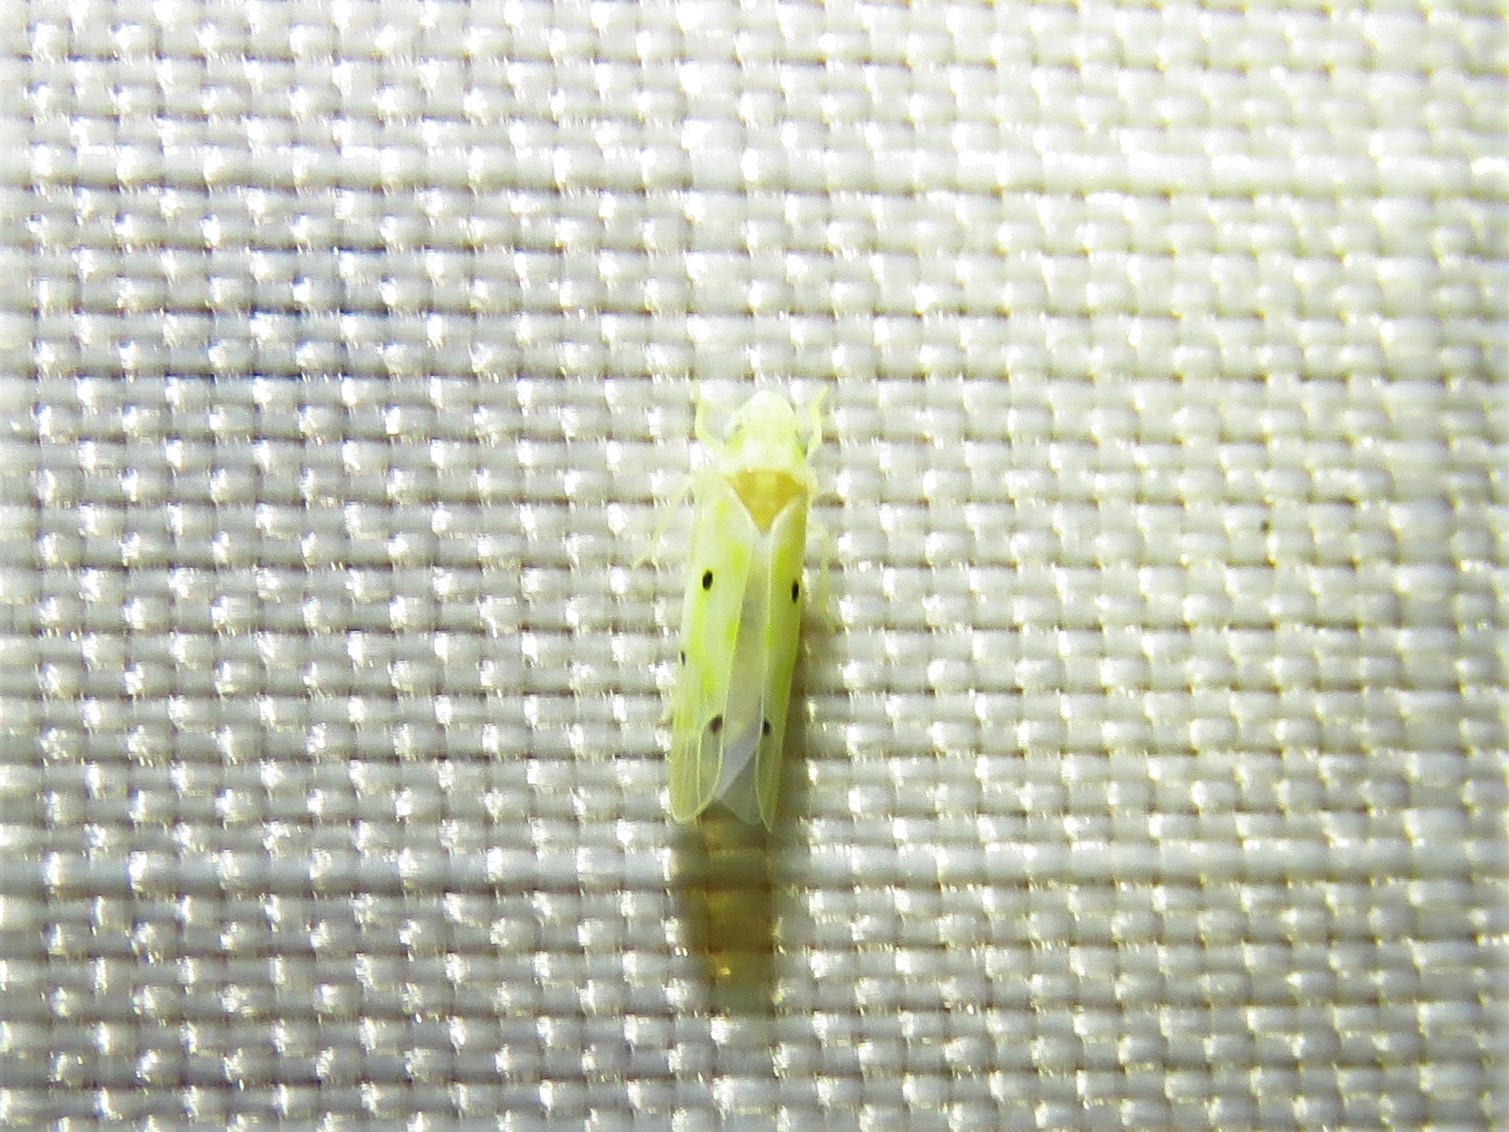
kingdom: Animalia
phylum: Arthropoda
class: Insecta
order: Hemiptera
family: Cicadellidae
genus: Illinigina
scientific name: Illinigina illinoiensis
